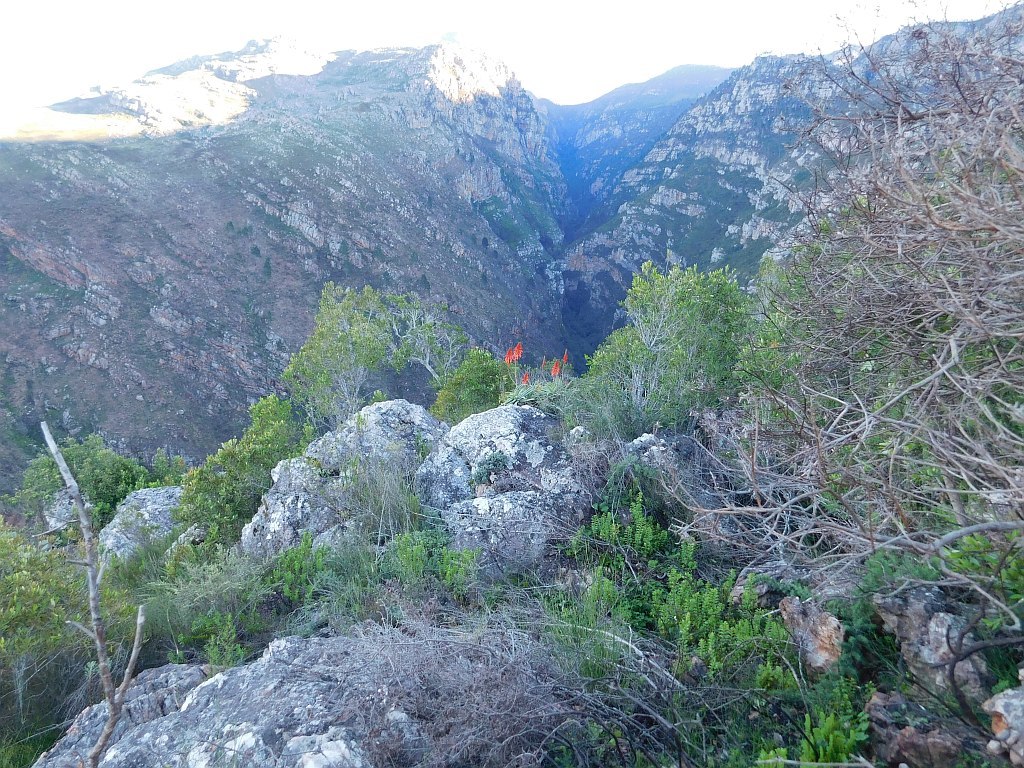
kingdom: Plantae
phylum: Tracheophyta
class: Liliopsida
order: Asparagales
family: Asphodelaceae
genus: Aloe
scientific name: Aloe arborescens
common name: Candelabra aloe
